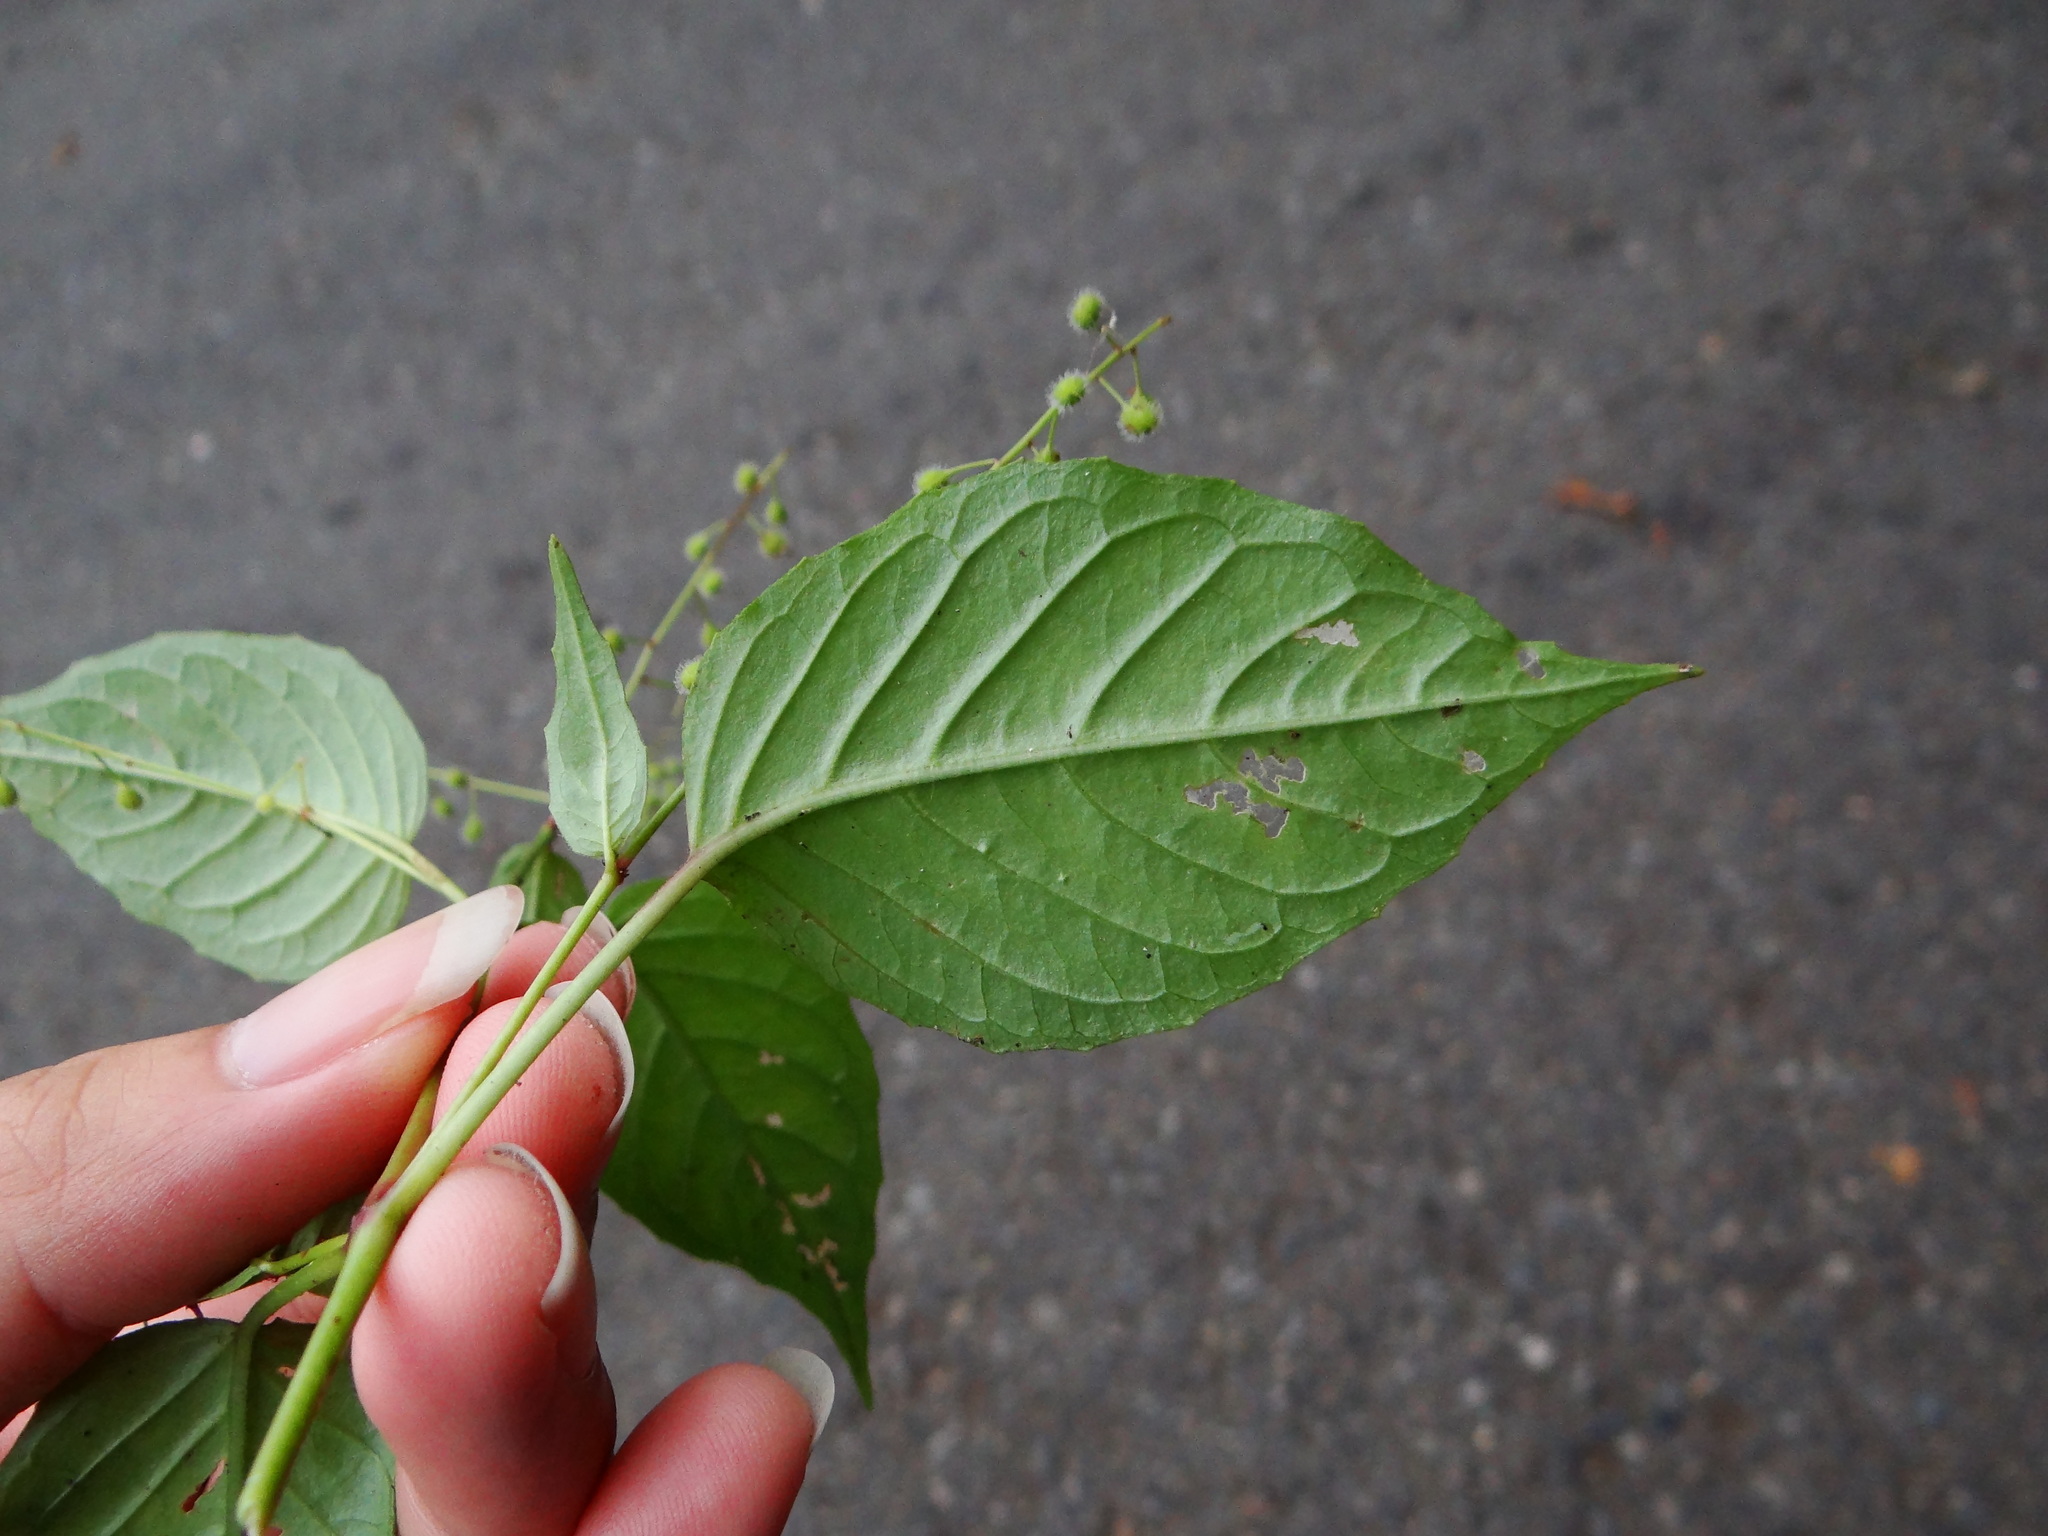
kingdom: Plantae
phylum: Tracheophyta
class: Magnoliopsida
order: Myrtales
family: Onagraceae
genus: Circaea
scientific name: Circaea erubescens
